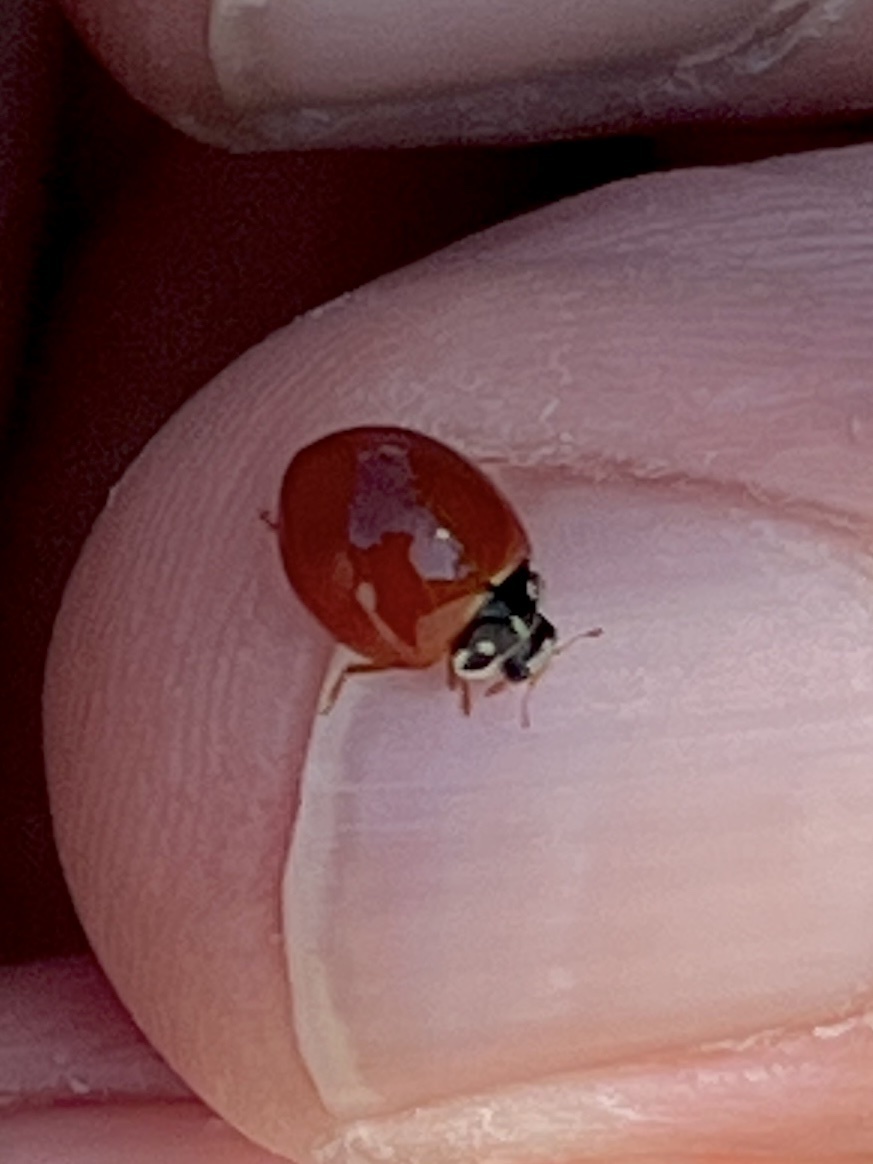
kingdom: Animalia
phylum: Arthropoda
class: Insecta
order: Coleoptera
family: Coccinellidae
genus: Cycloneda
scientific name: Cycloneda sanguinea
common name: Ladybird beetle
